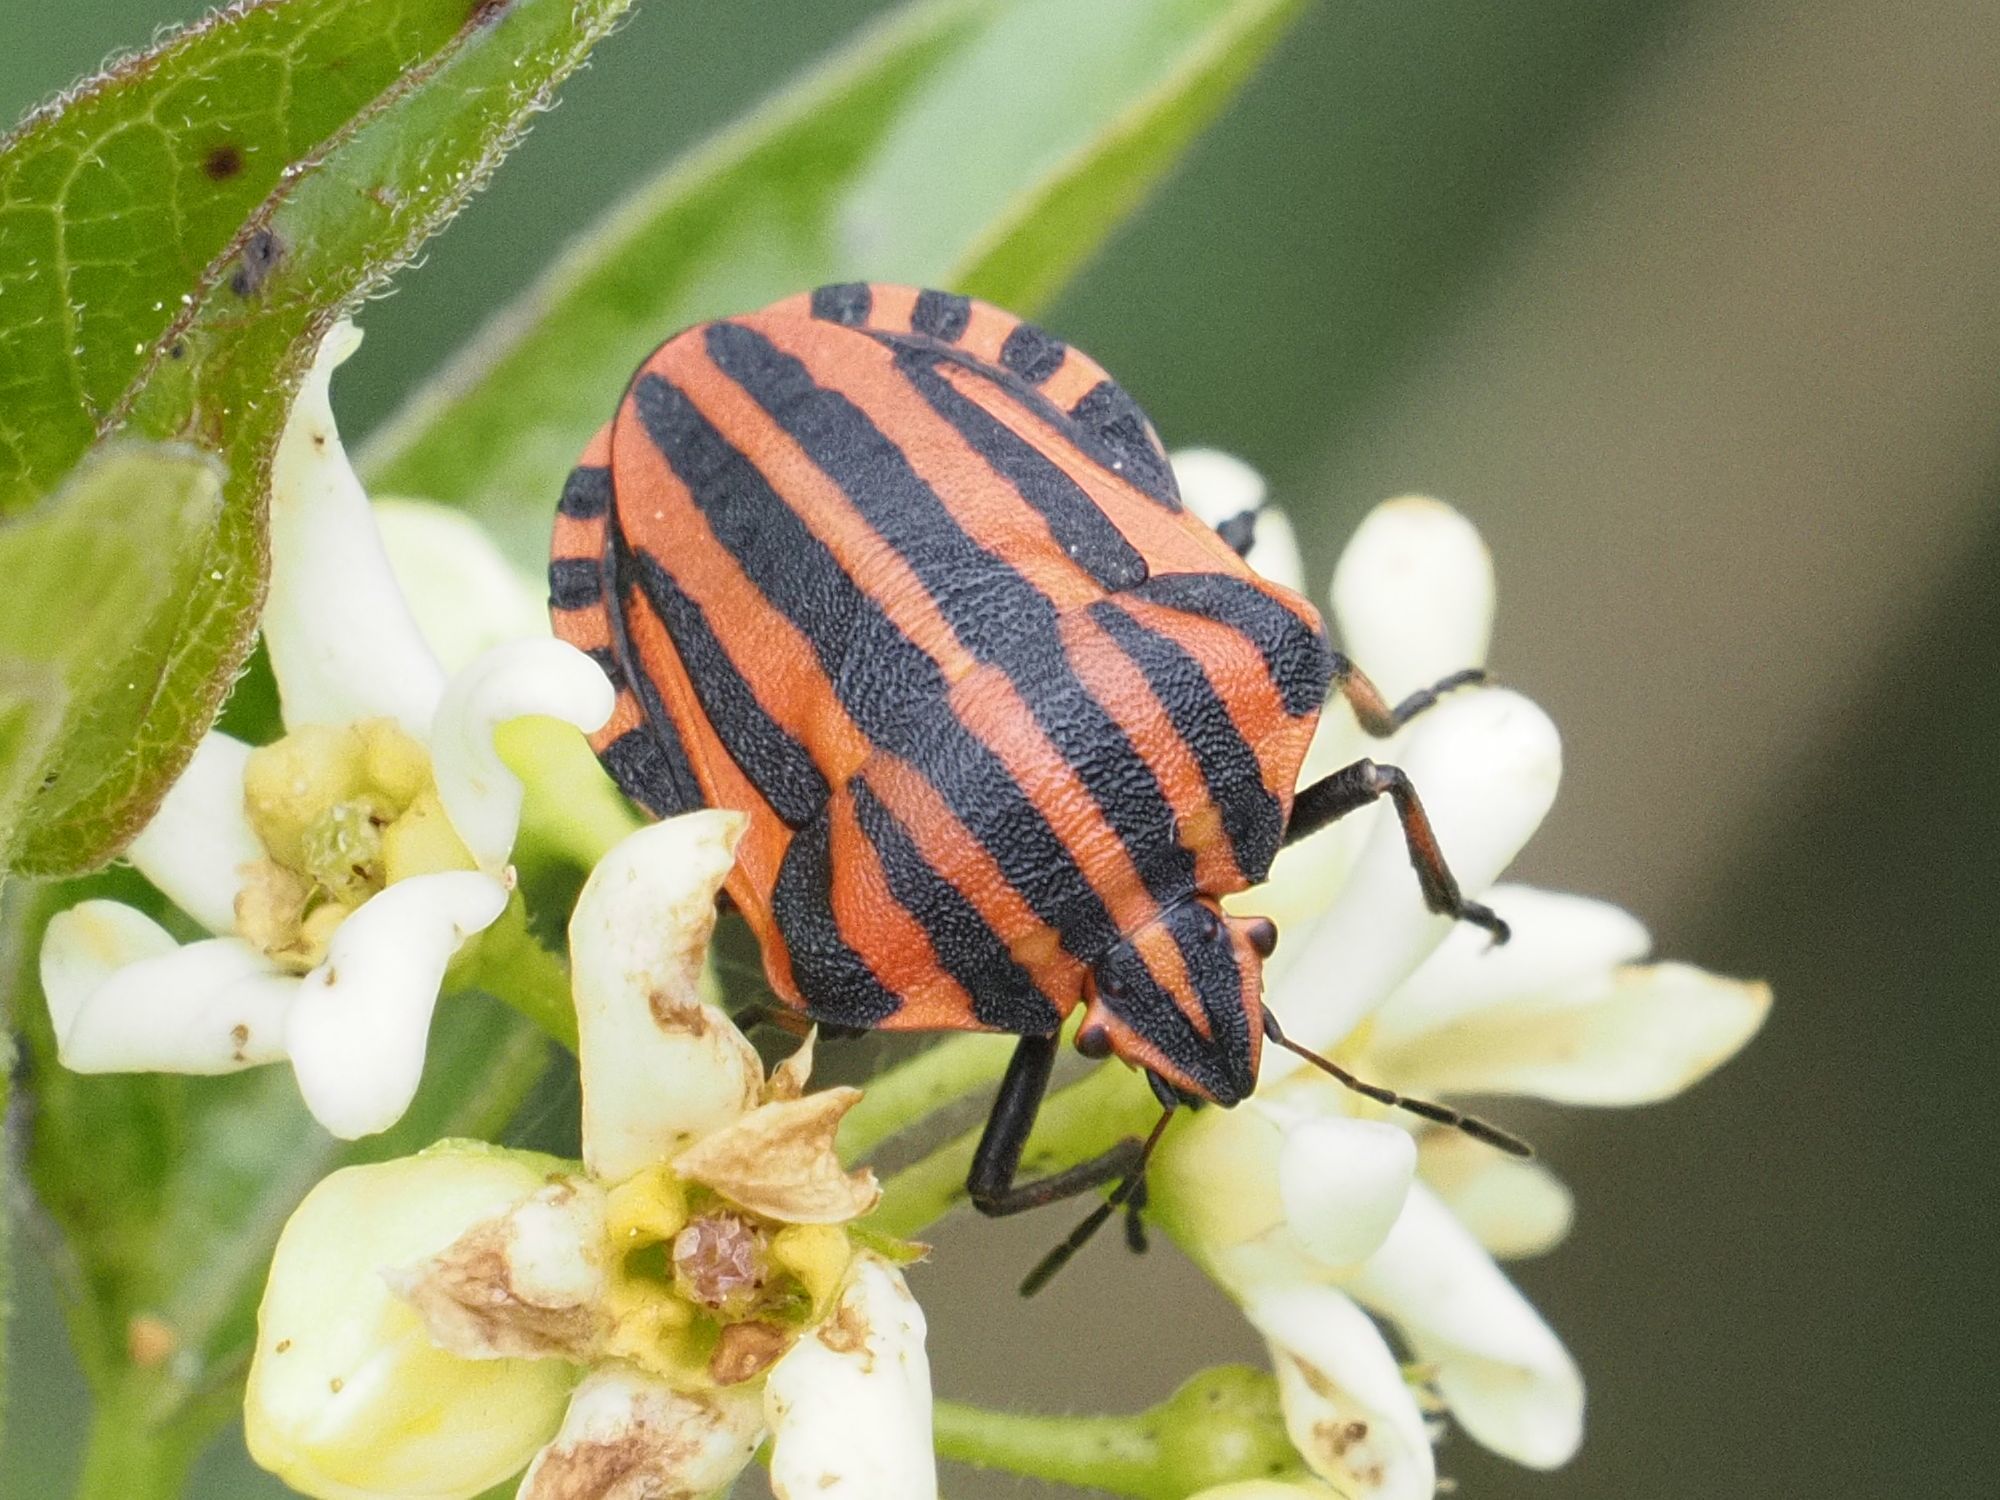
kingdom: Animalia
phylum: Arthropoda
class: Insecta
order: Hemiptera
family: Pentatomidae
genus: Graphosoma
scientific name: Graphosoma italicum
